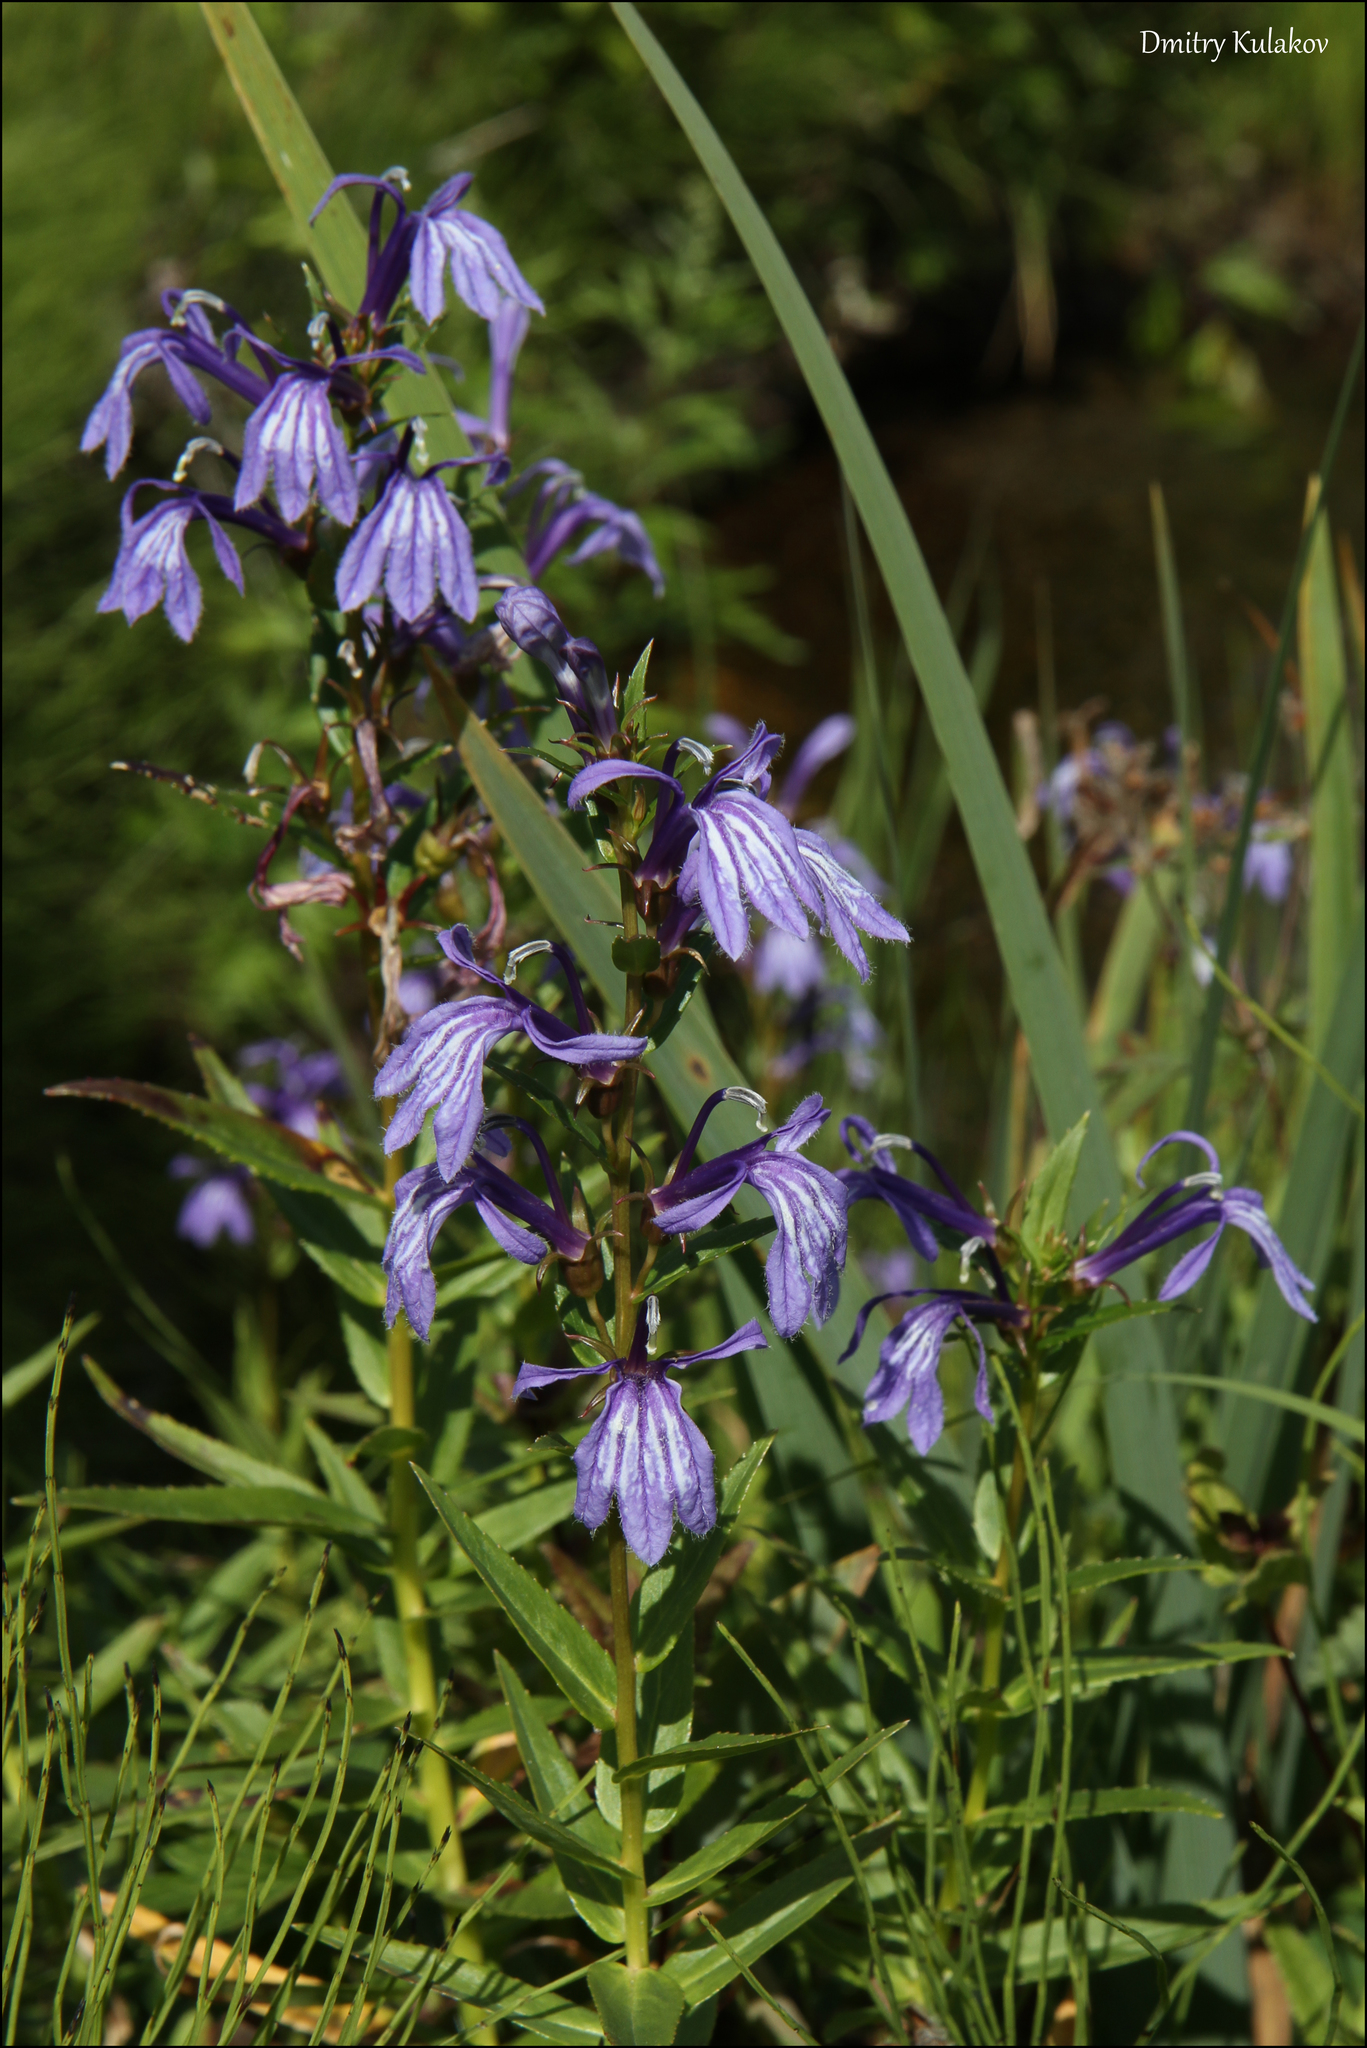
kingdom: Plantae
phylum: Tracheophyta
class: Magnoliopsida
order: Asterales
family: Campanulaceae
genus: Lobelia
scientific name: Lobelia sessilifolia
